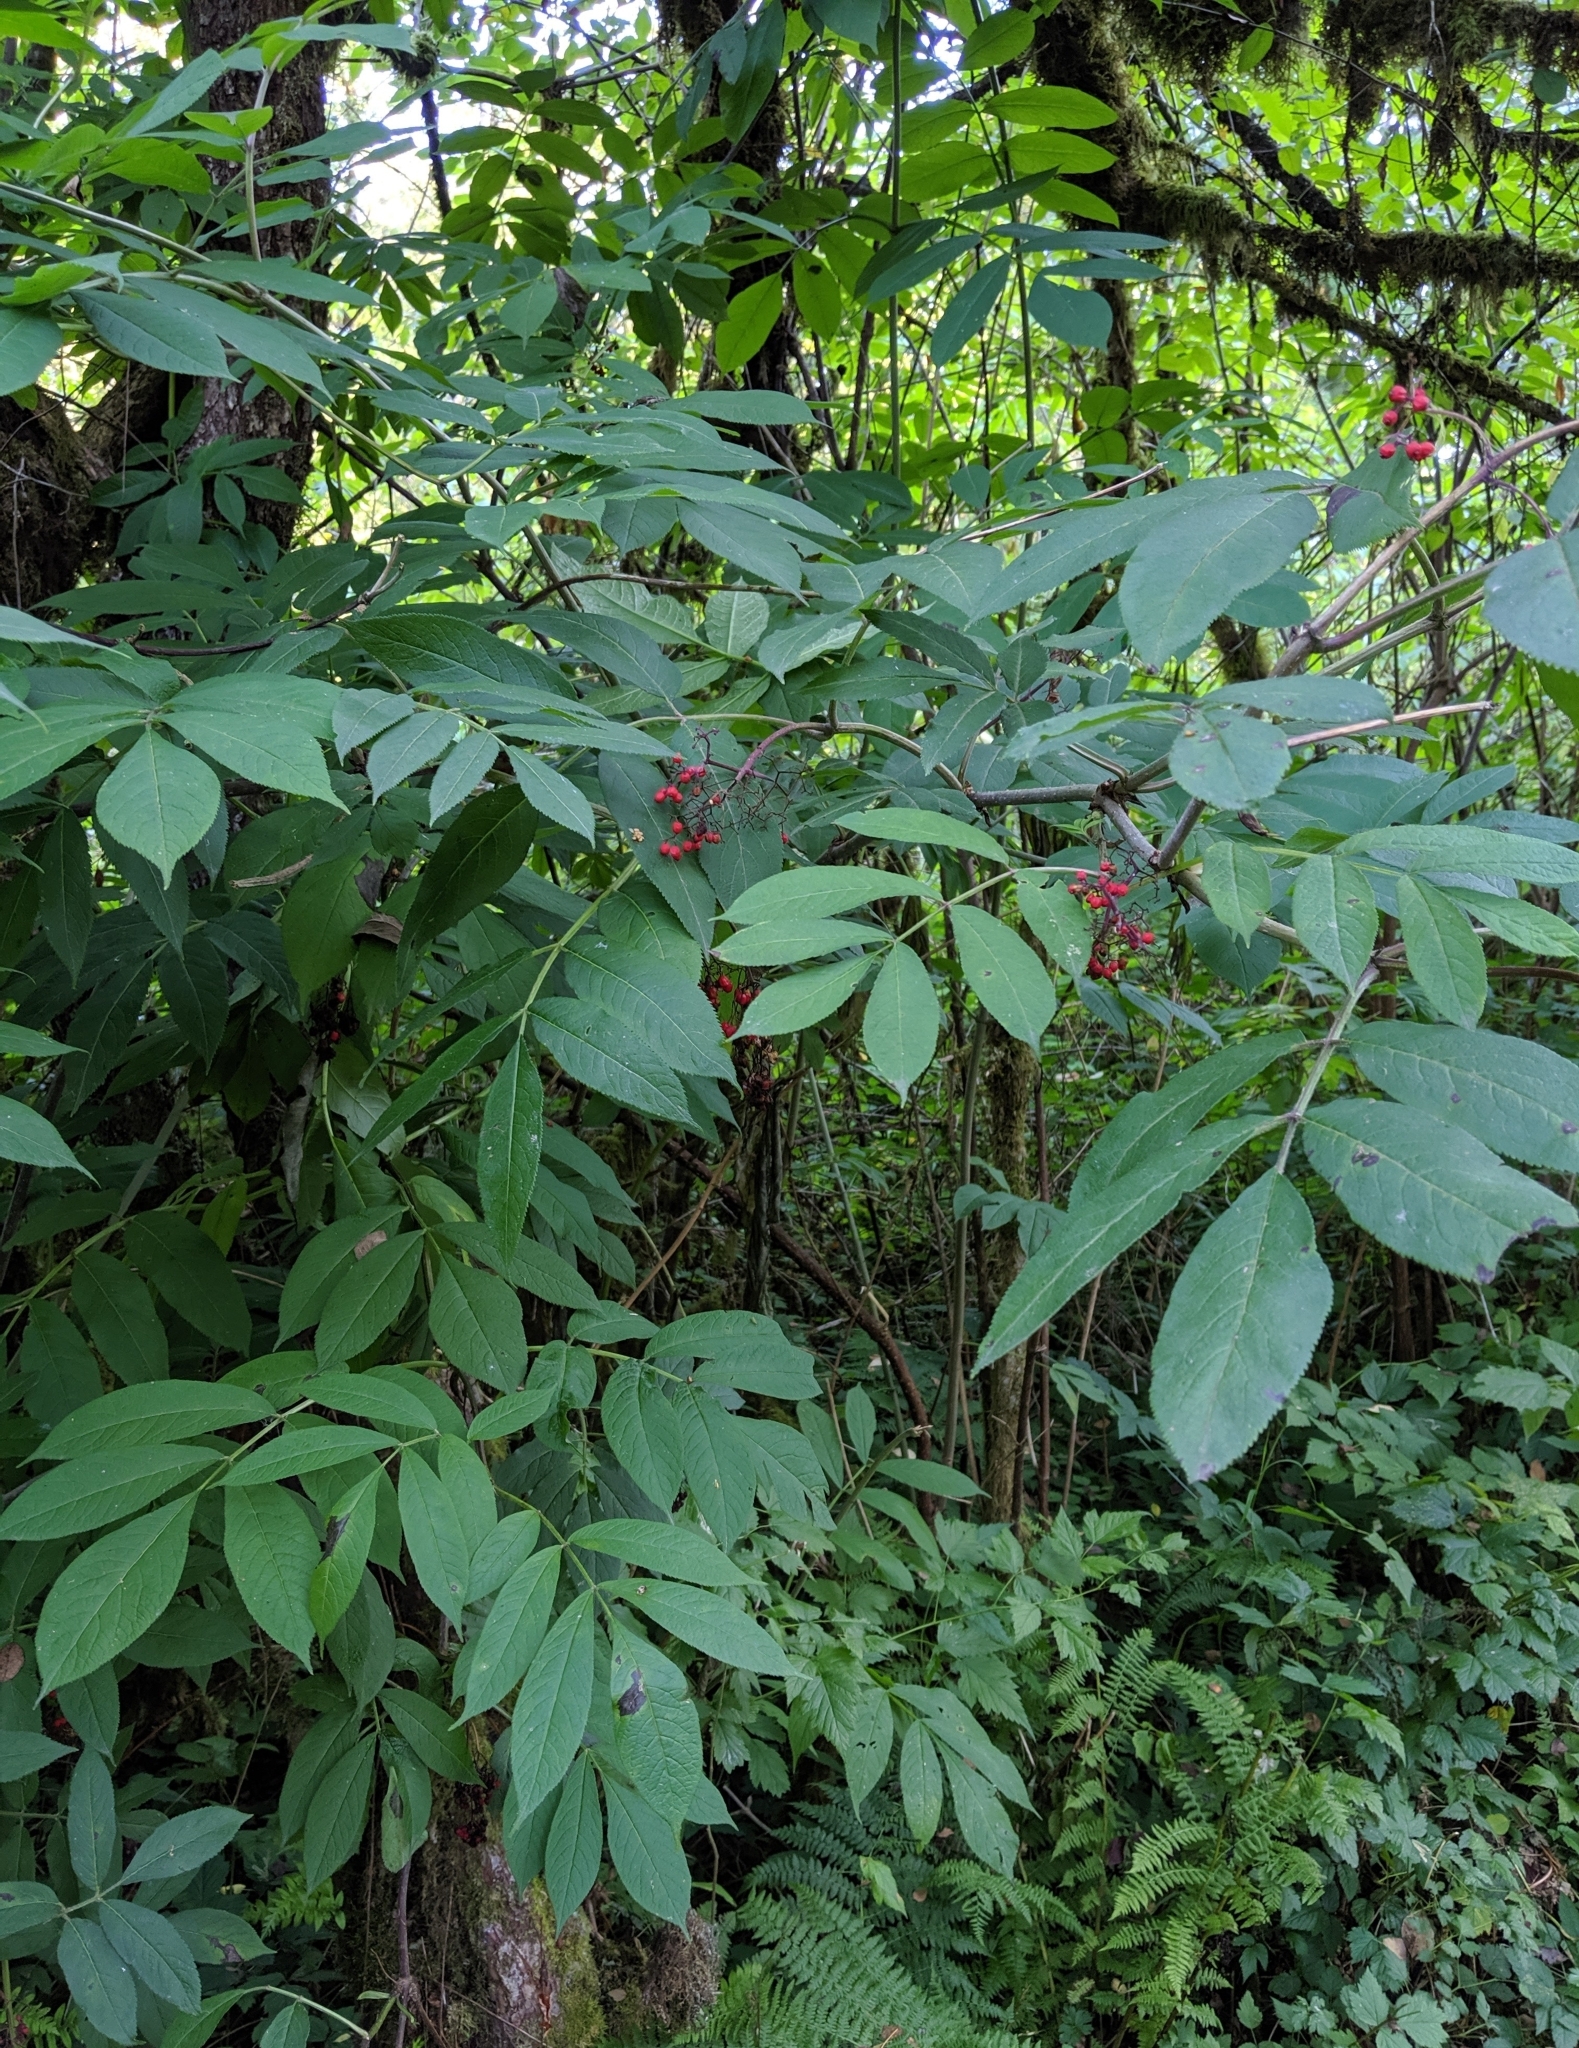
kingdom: Plantae
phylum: Tracheophyta
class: Magnoliopsida
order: Dipsacales
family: Viburnaceae
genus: Sambucus
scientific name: Sambucus racemosa
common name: Red-berried elder
